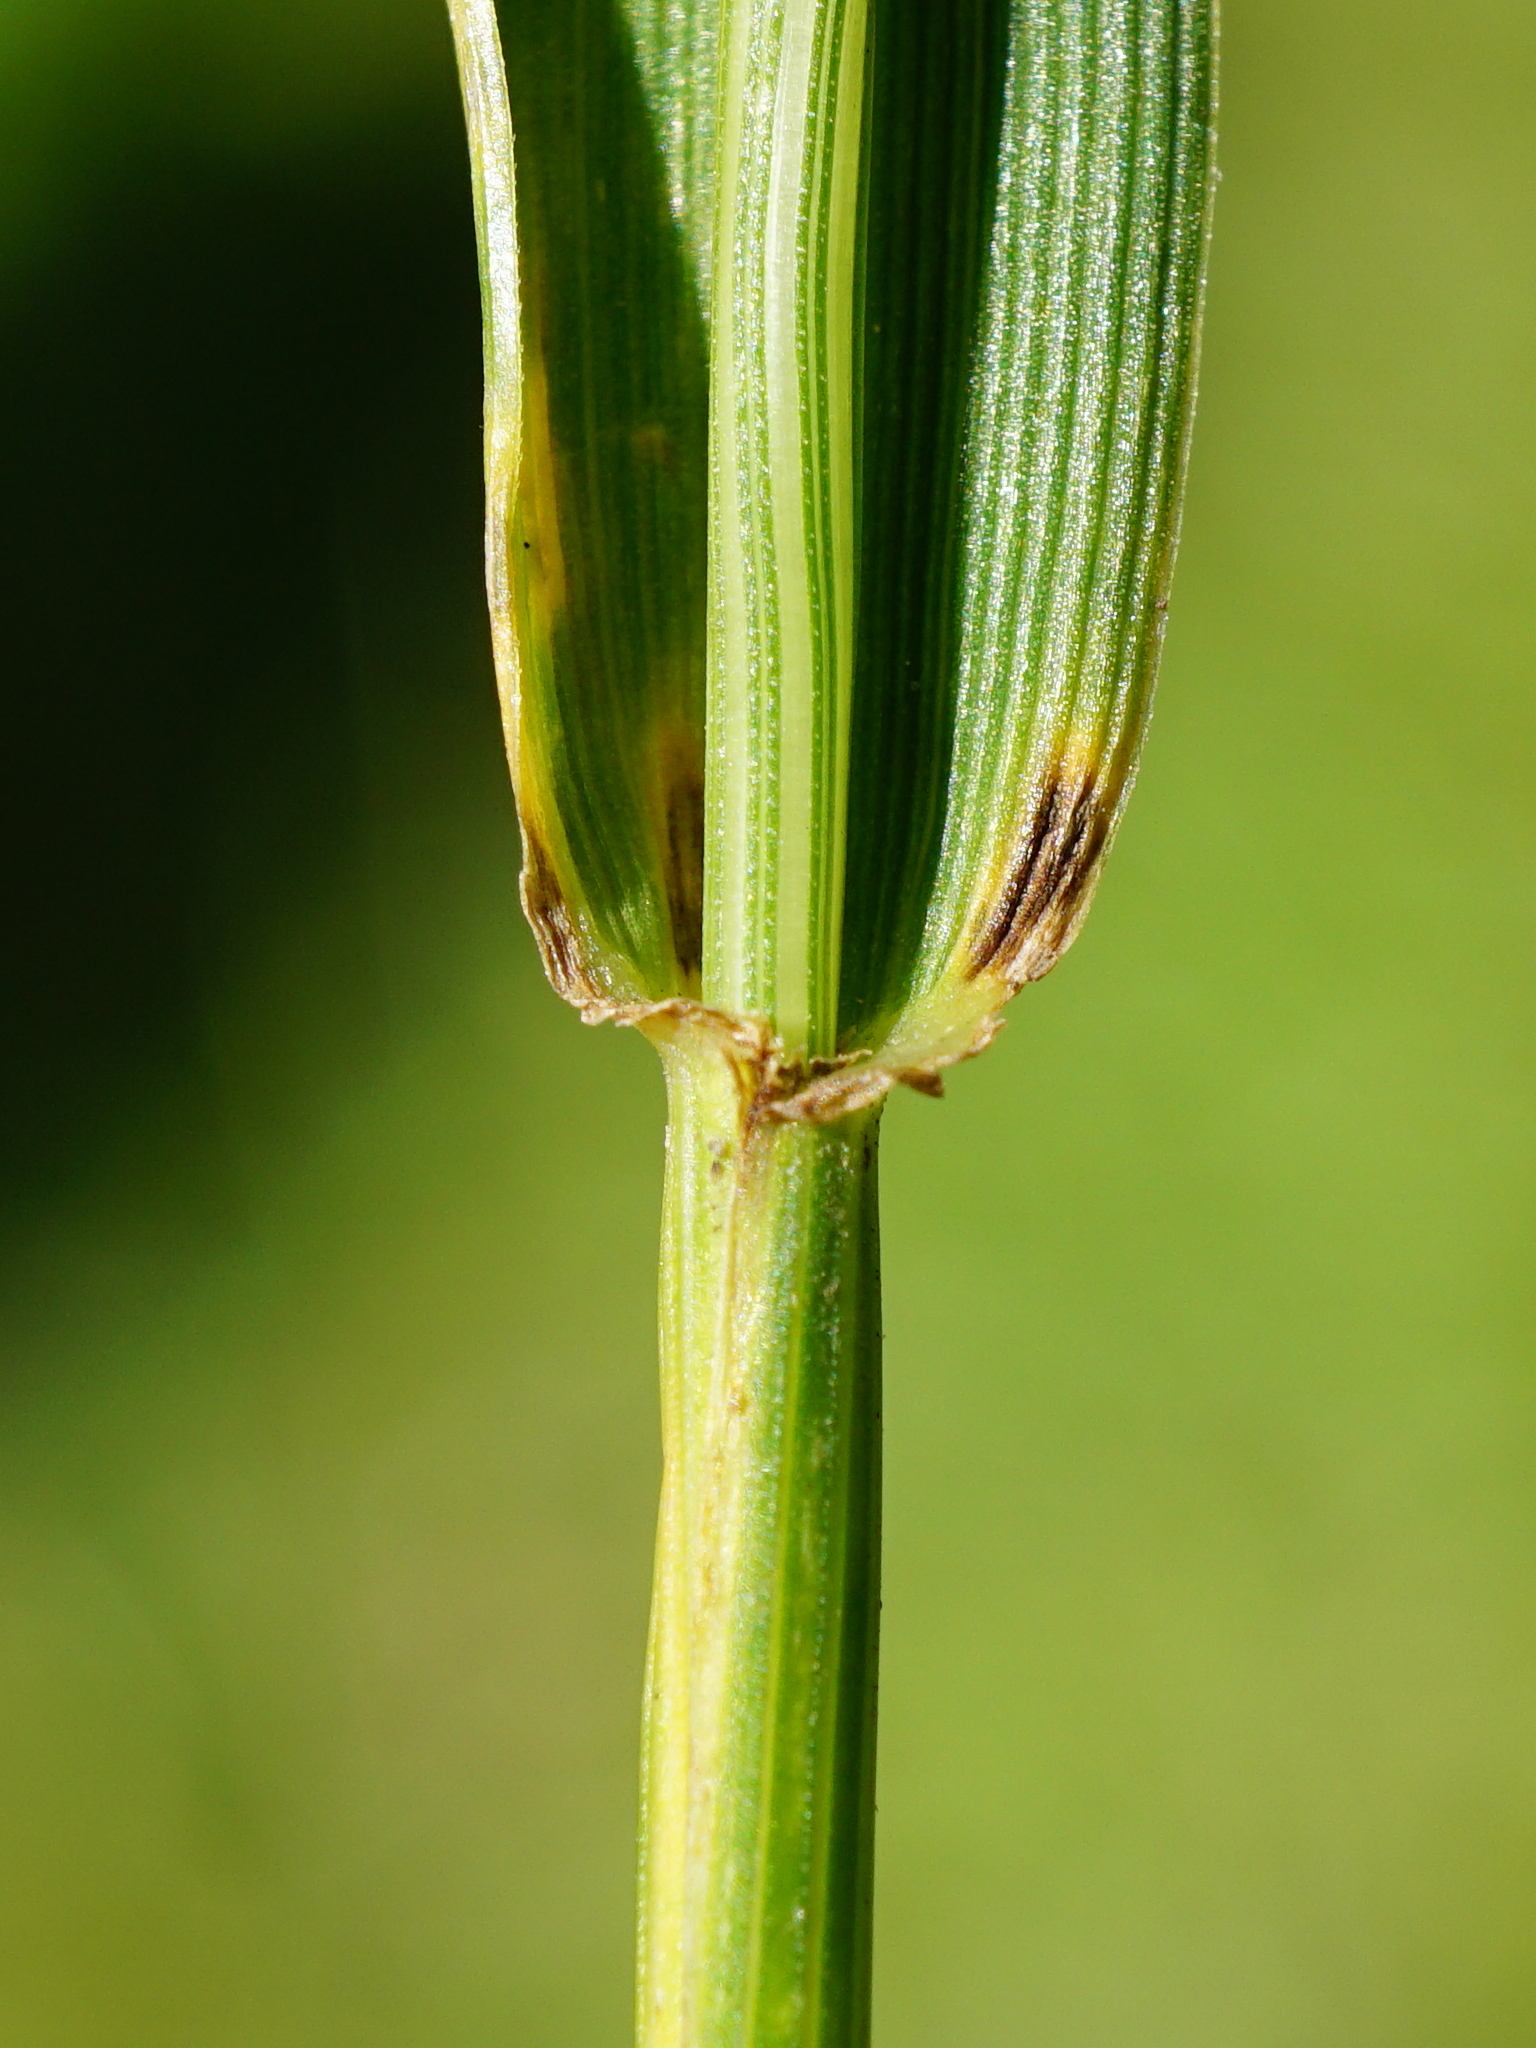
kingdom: Plantae
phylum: Tracheophyta
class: Liliopsida
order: Poales
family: Poaceae
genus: Lolium
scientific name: Lolium arundinaceum
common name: Reed fescue
